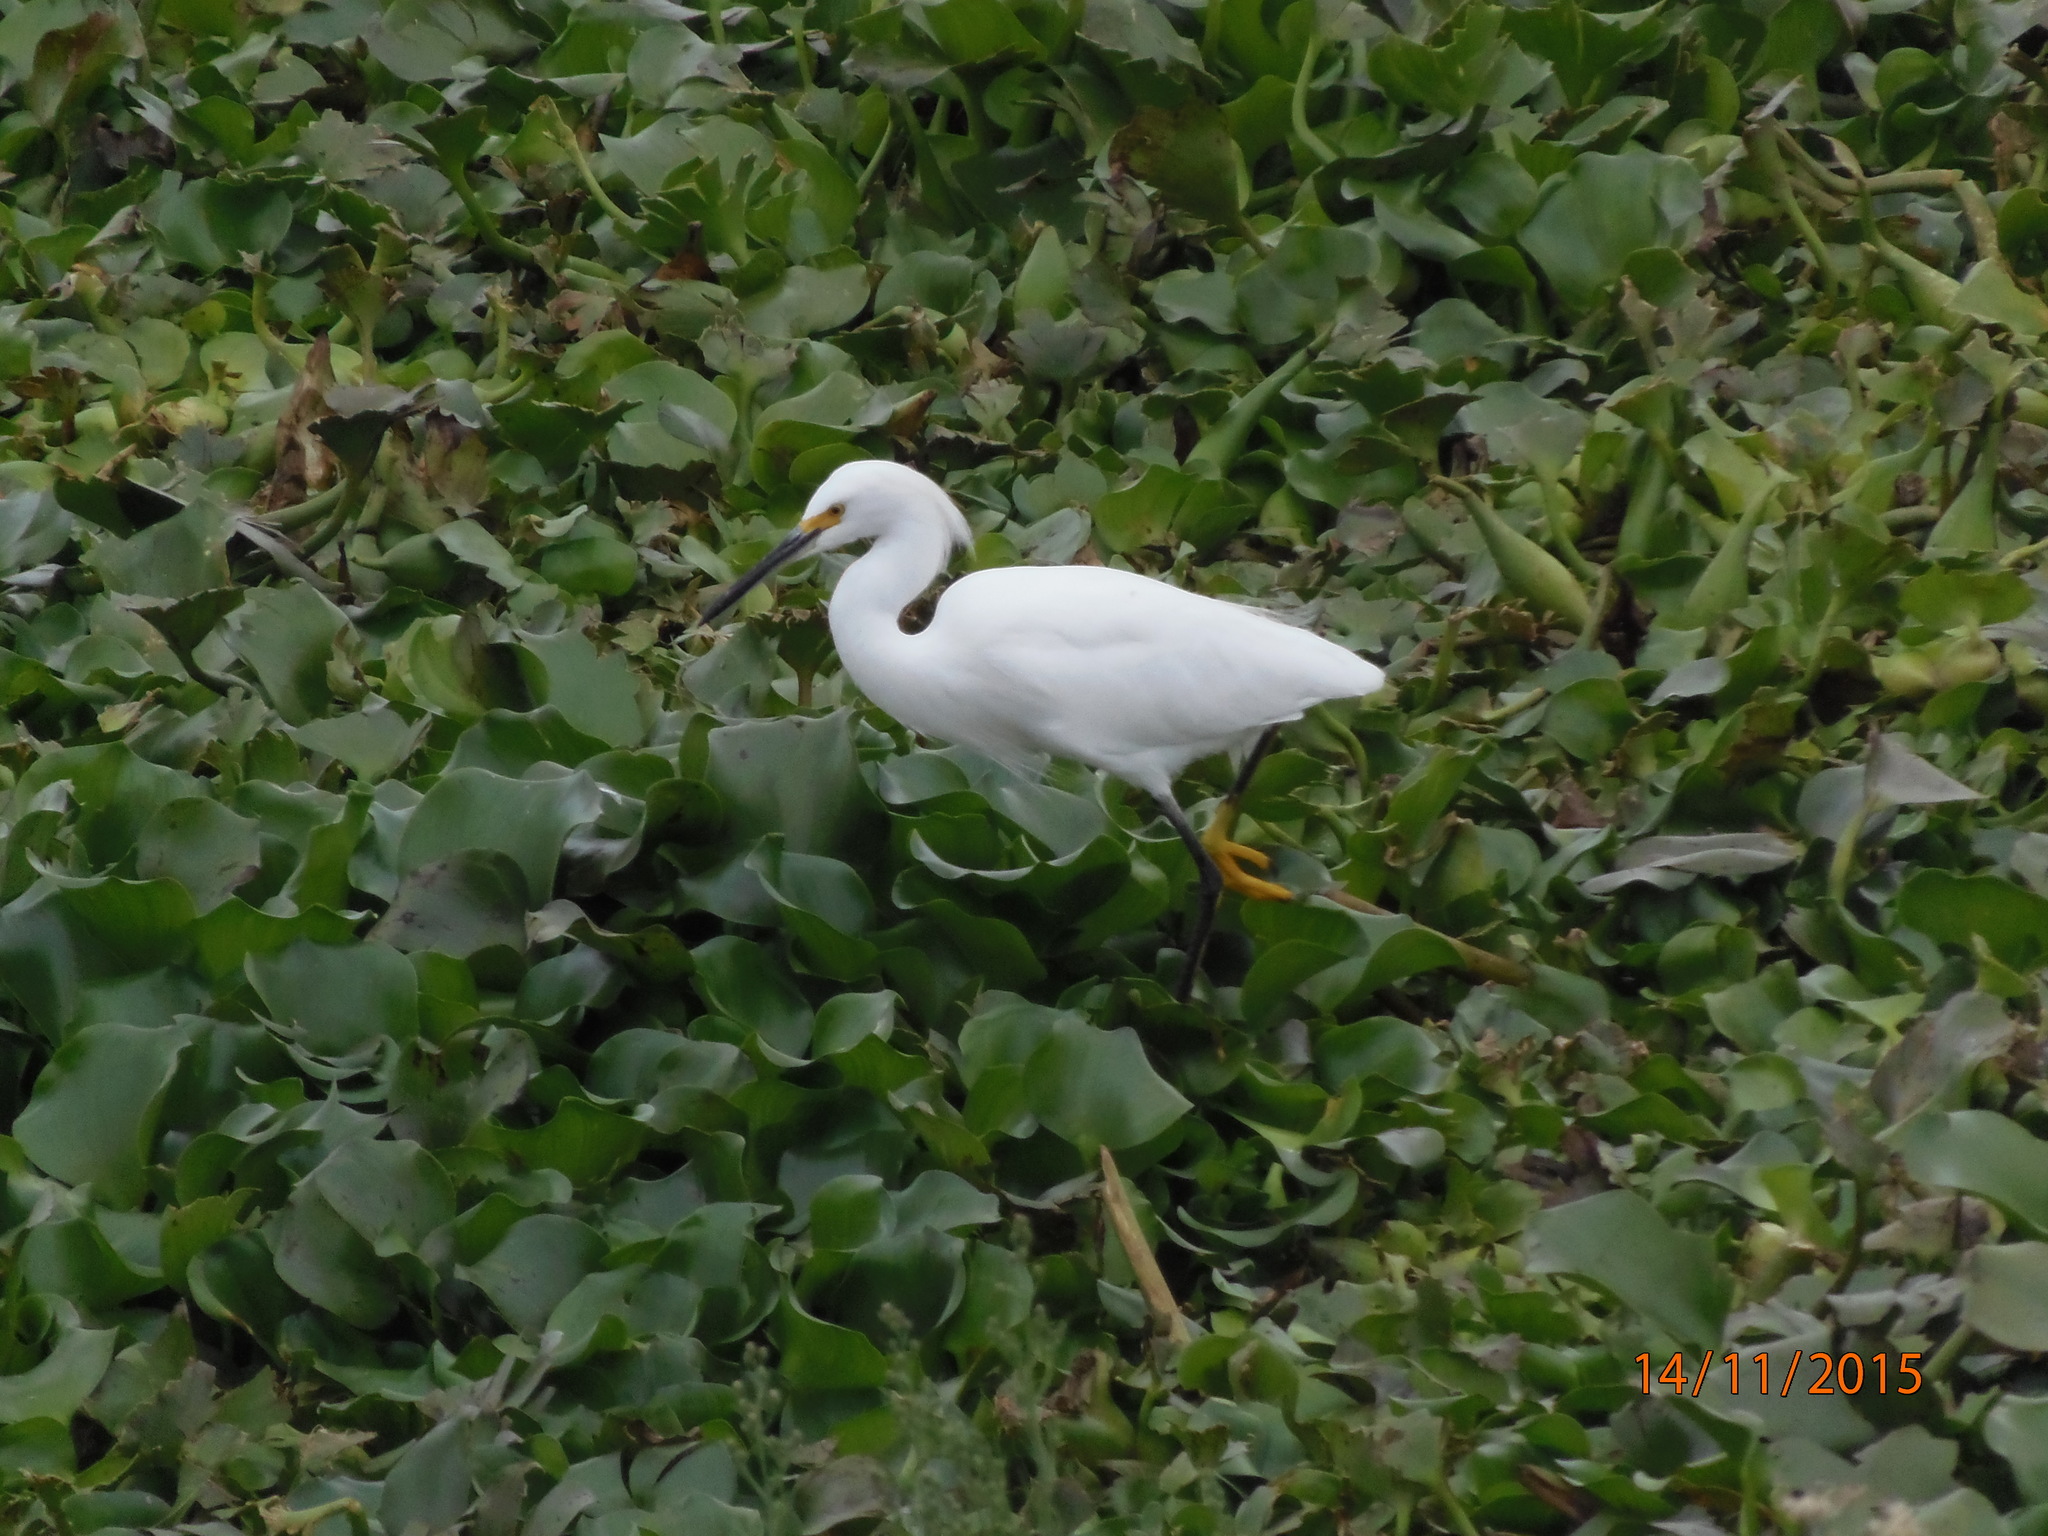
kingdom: Animalia
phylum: Chordata
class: Aves
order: Pelecaniformes
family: Ardeidae
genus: Egretta
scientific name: Egretta thula
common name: Snowy egret
